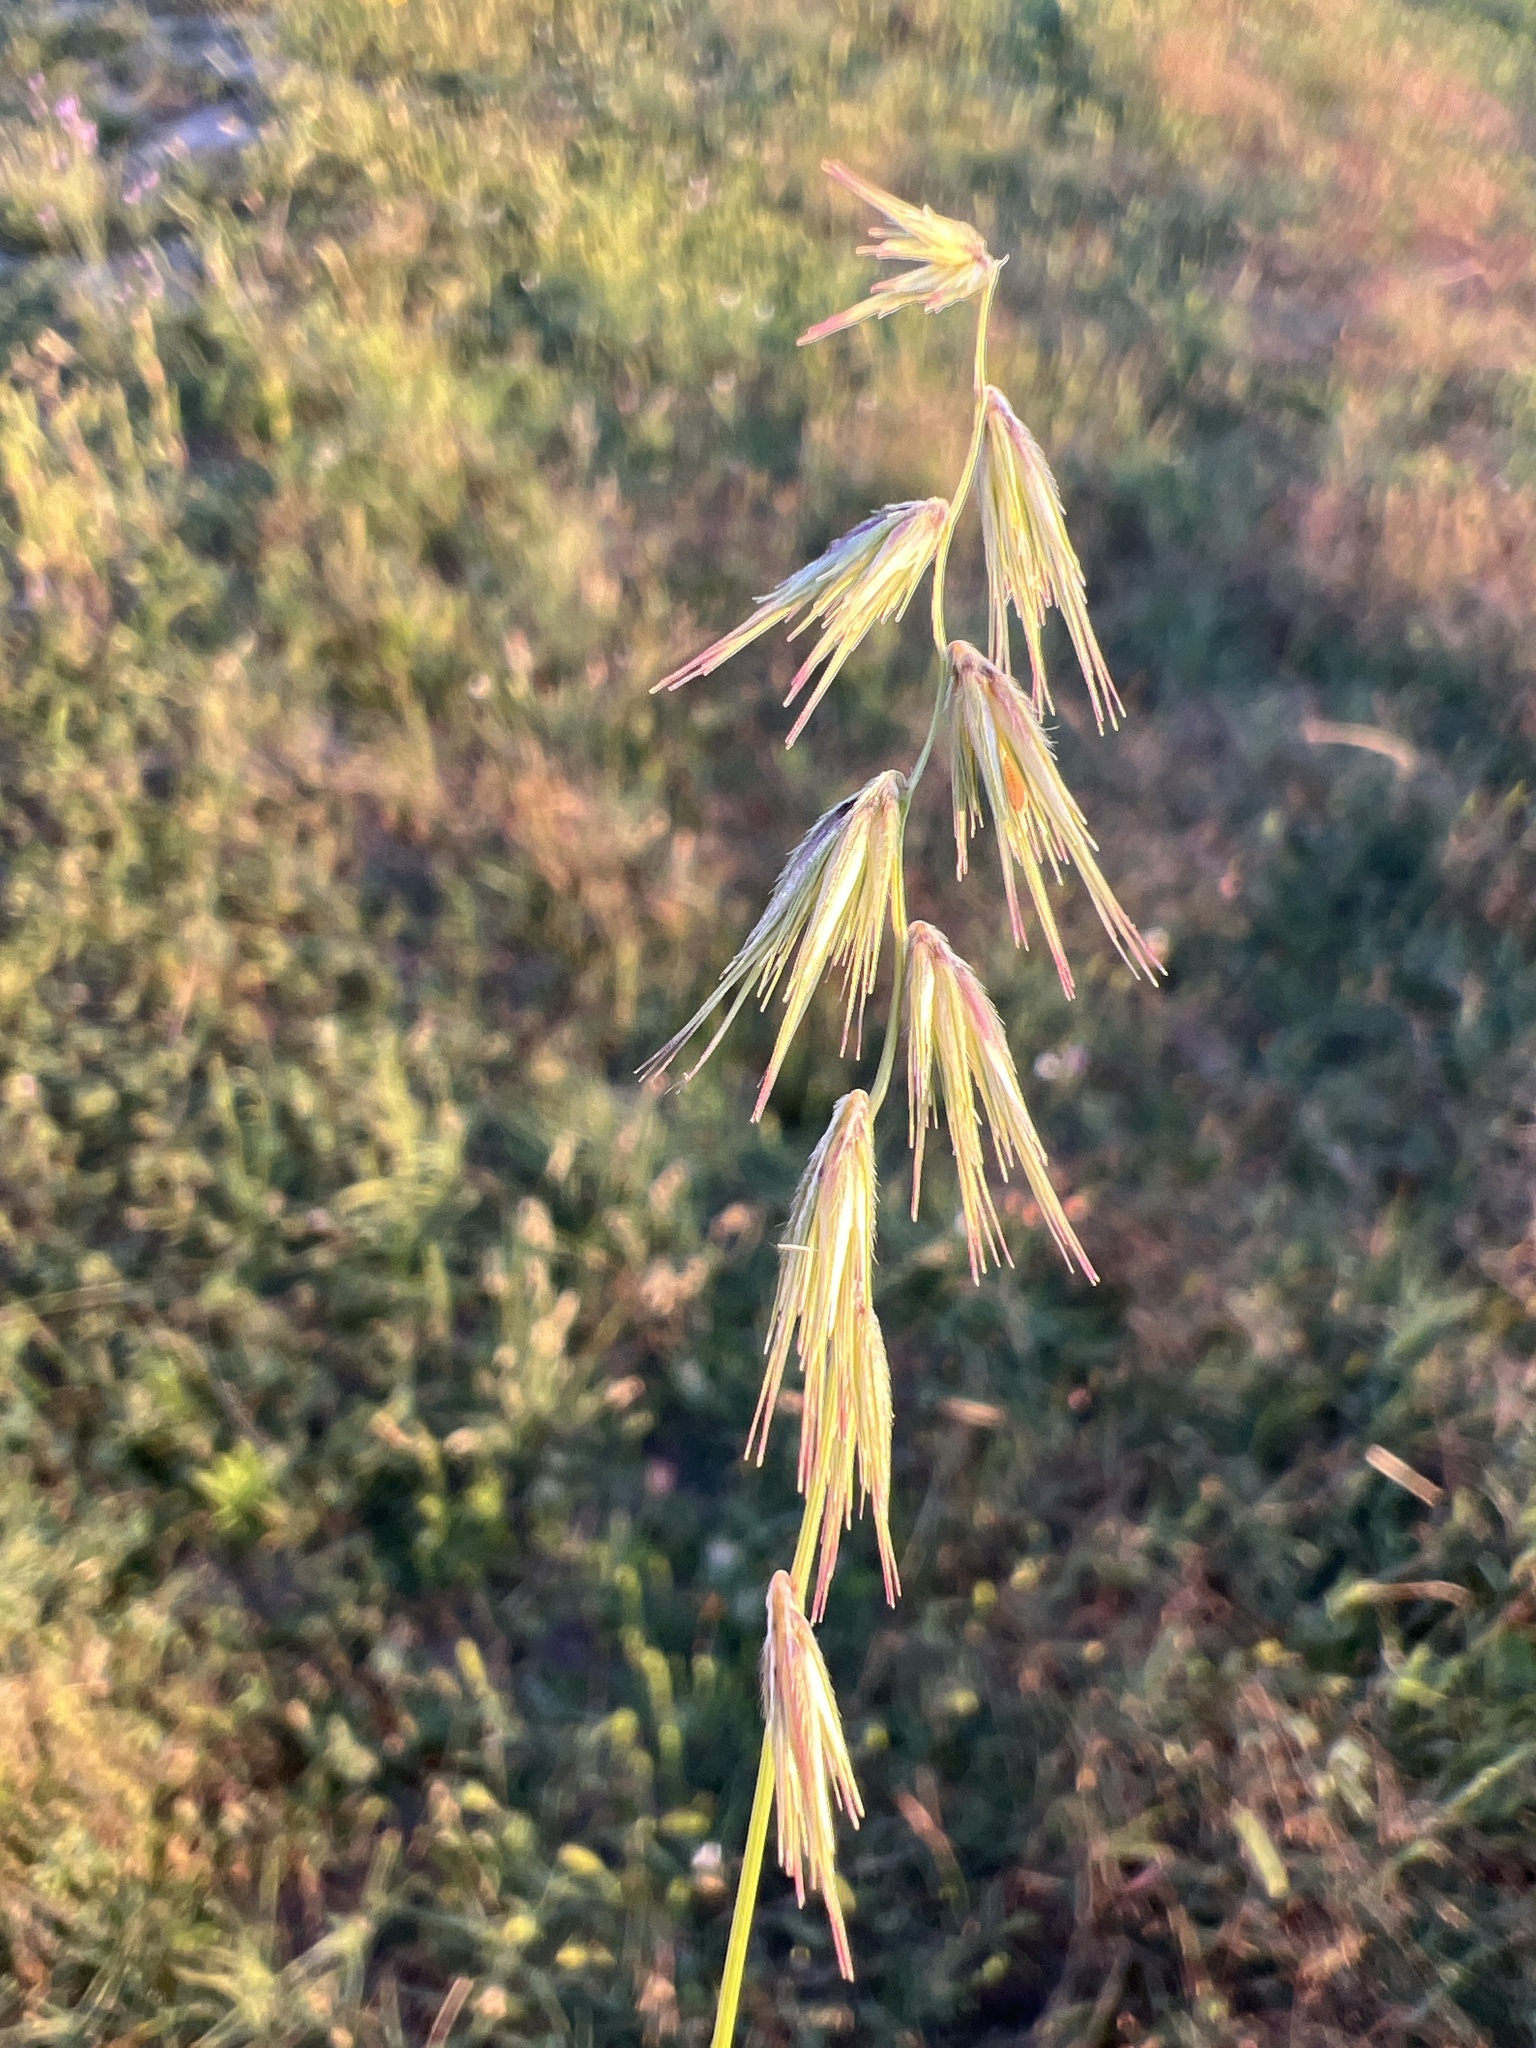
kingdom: Plantae
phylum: Tracheophyta
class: Liliopsida
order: Poales
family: Poaceae
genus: Bouteloua
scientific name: Bouteloua rigidiseta
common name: Texas grama
